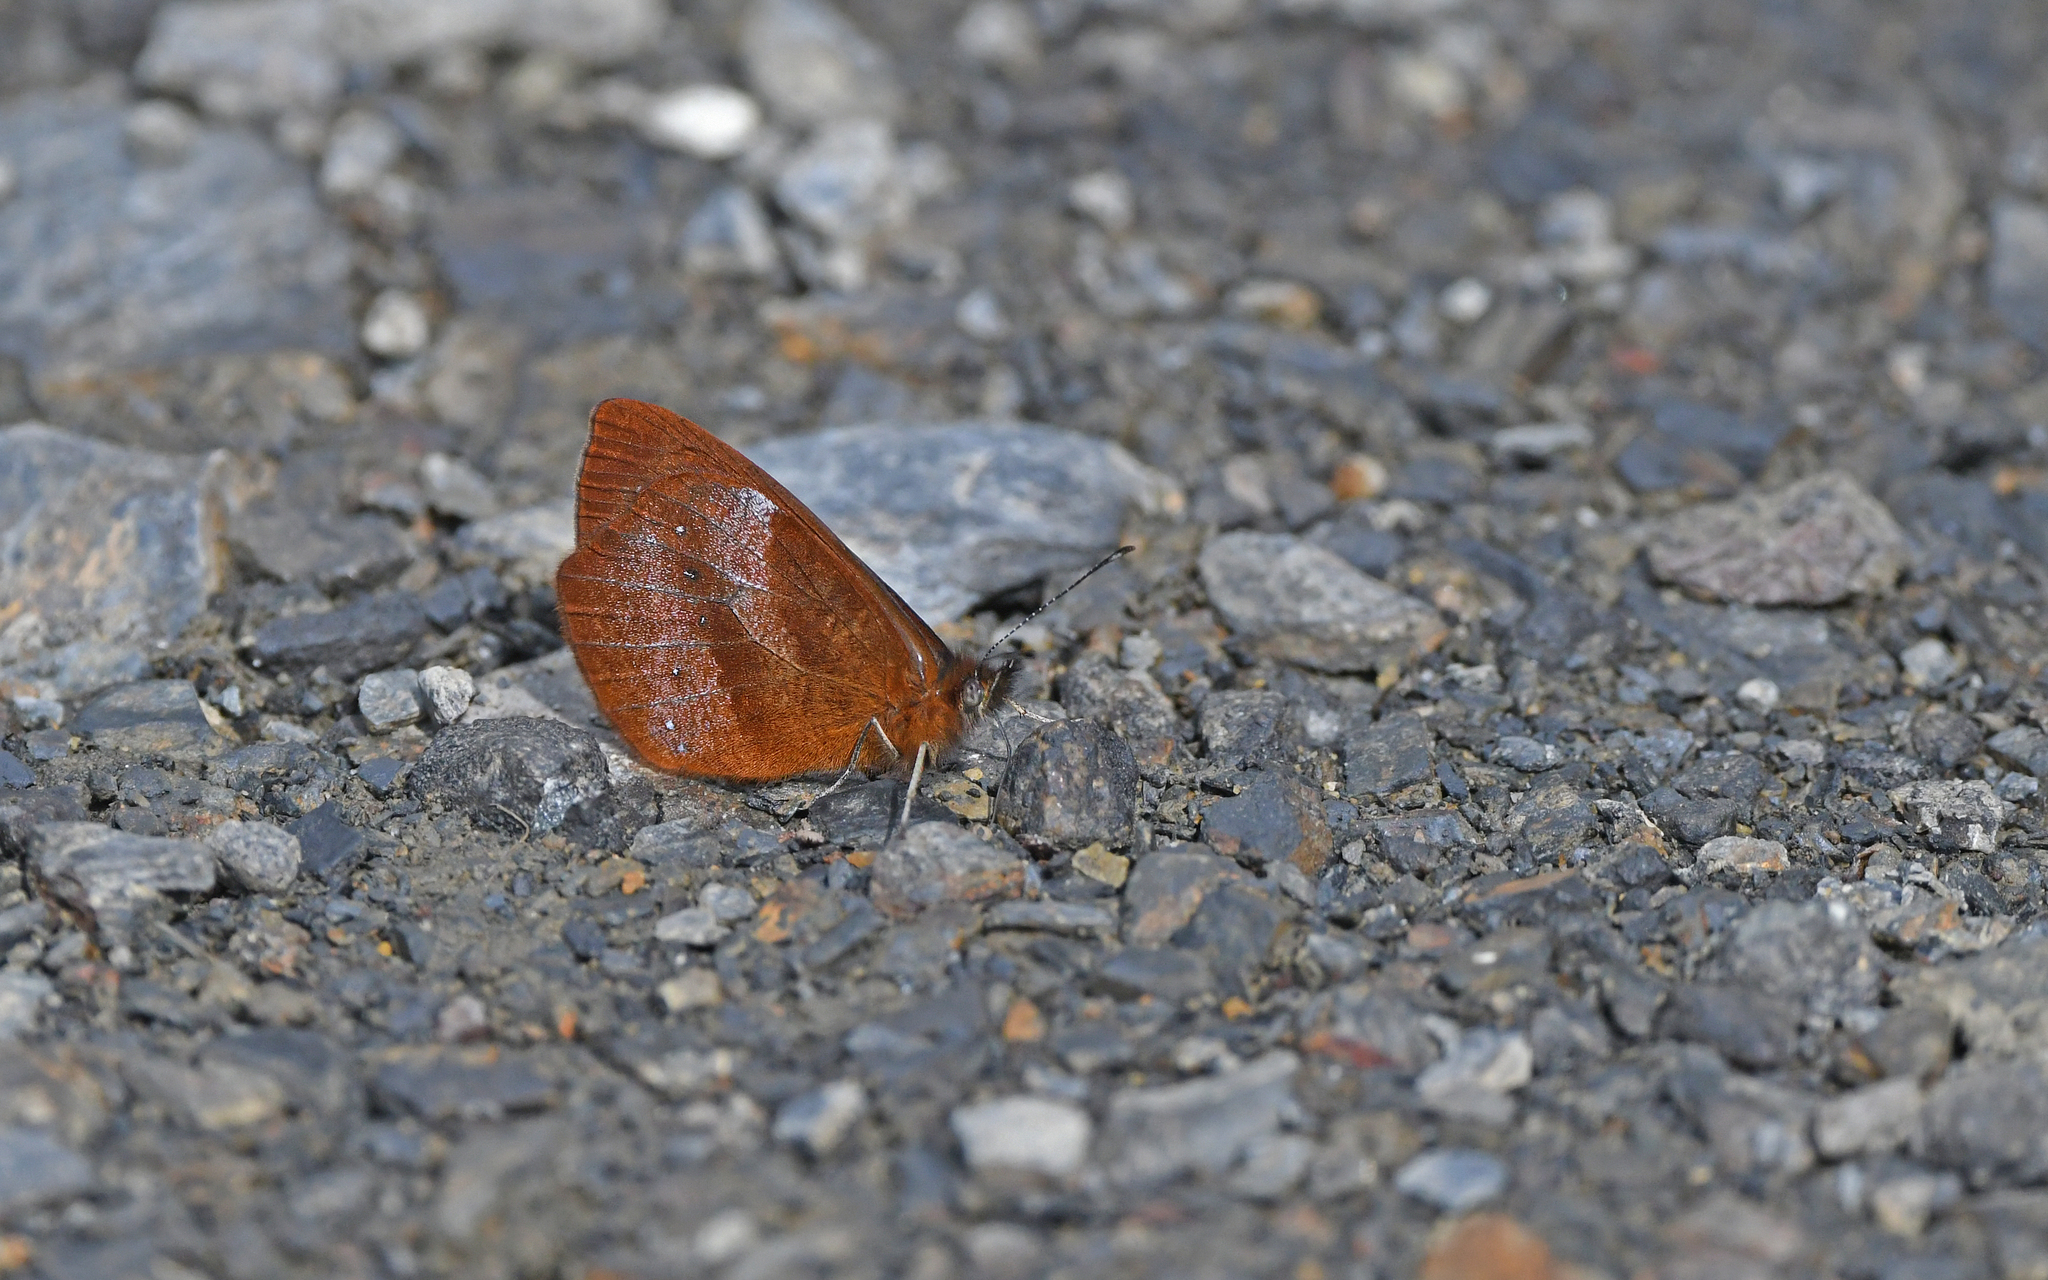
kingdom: Animalia
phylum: Arthropoda
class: Insecta
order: Lepidoptera
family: Nymphalidae
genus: Lymanopoda
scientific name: Lymanopoda obsoleta
